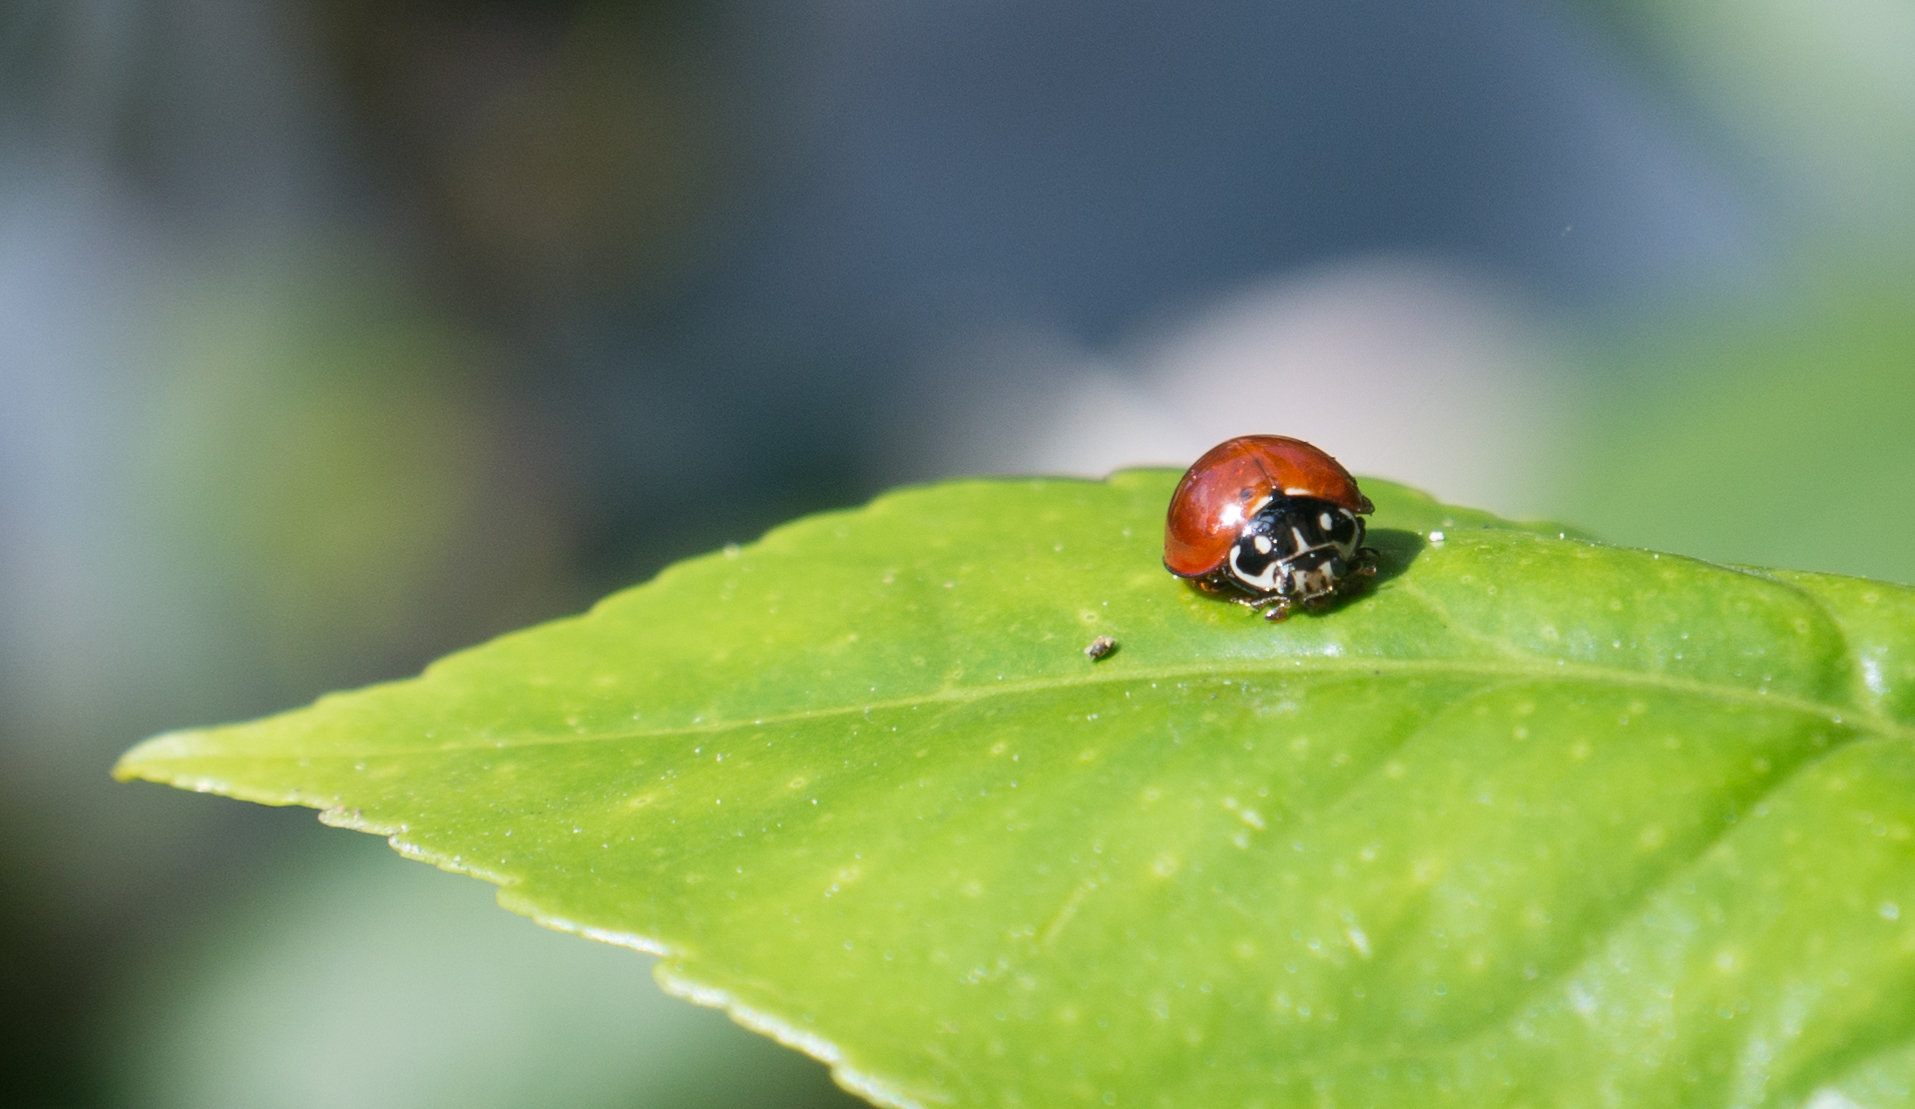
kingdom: Animalia
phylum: Arthropoda
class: Insecta
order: Coleoptera
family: Coccinellidae
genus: Cycloneda
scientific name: Cycloneda sanguinea
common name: Ladybird beetle
